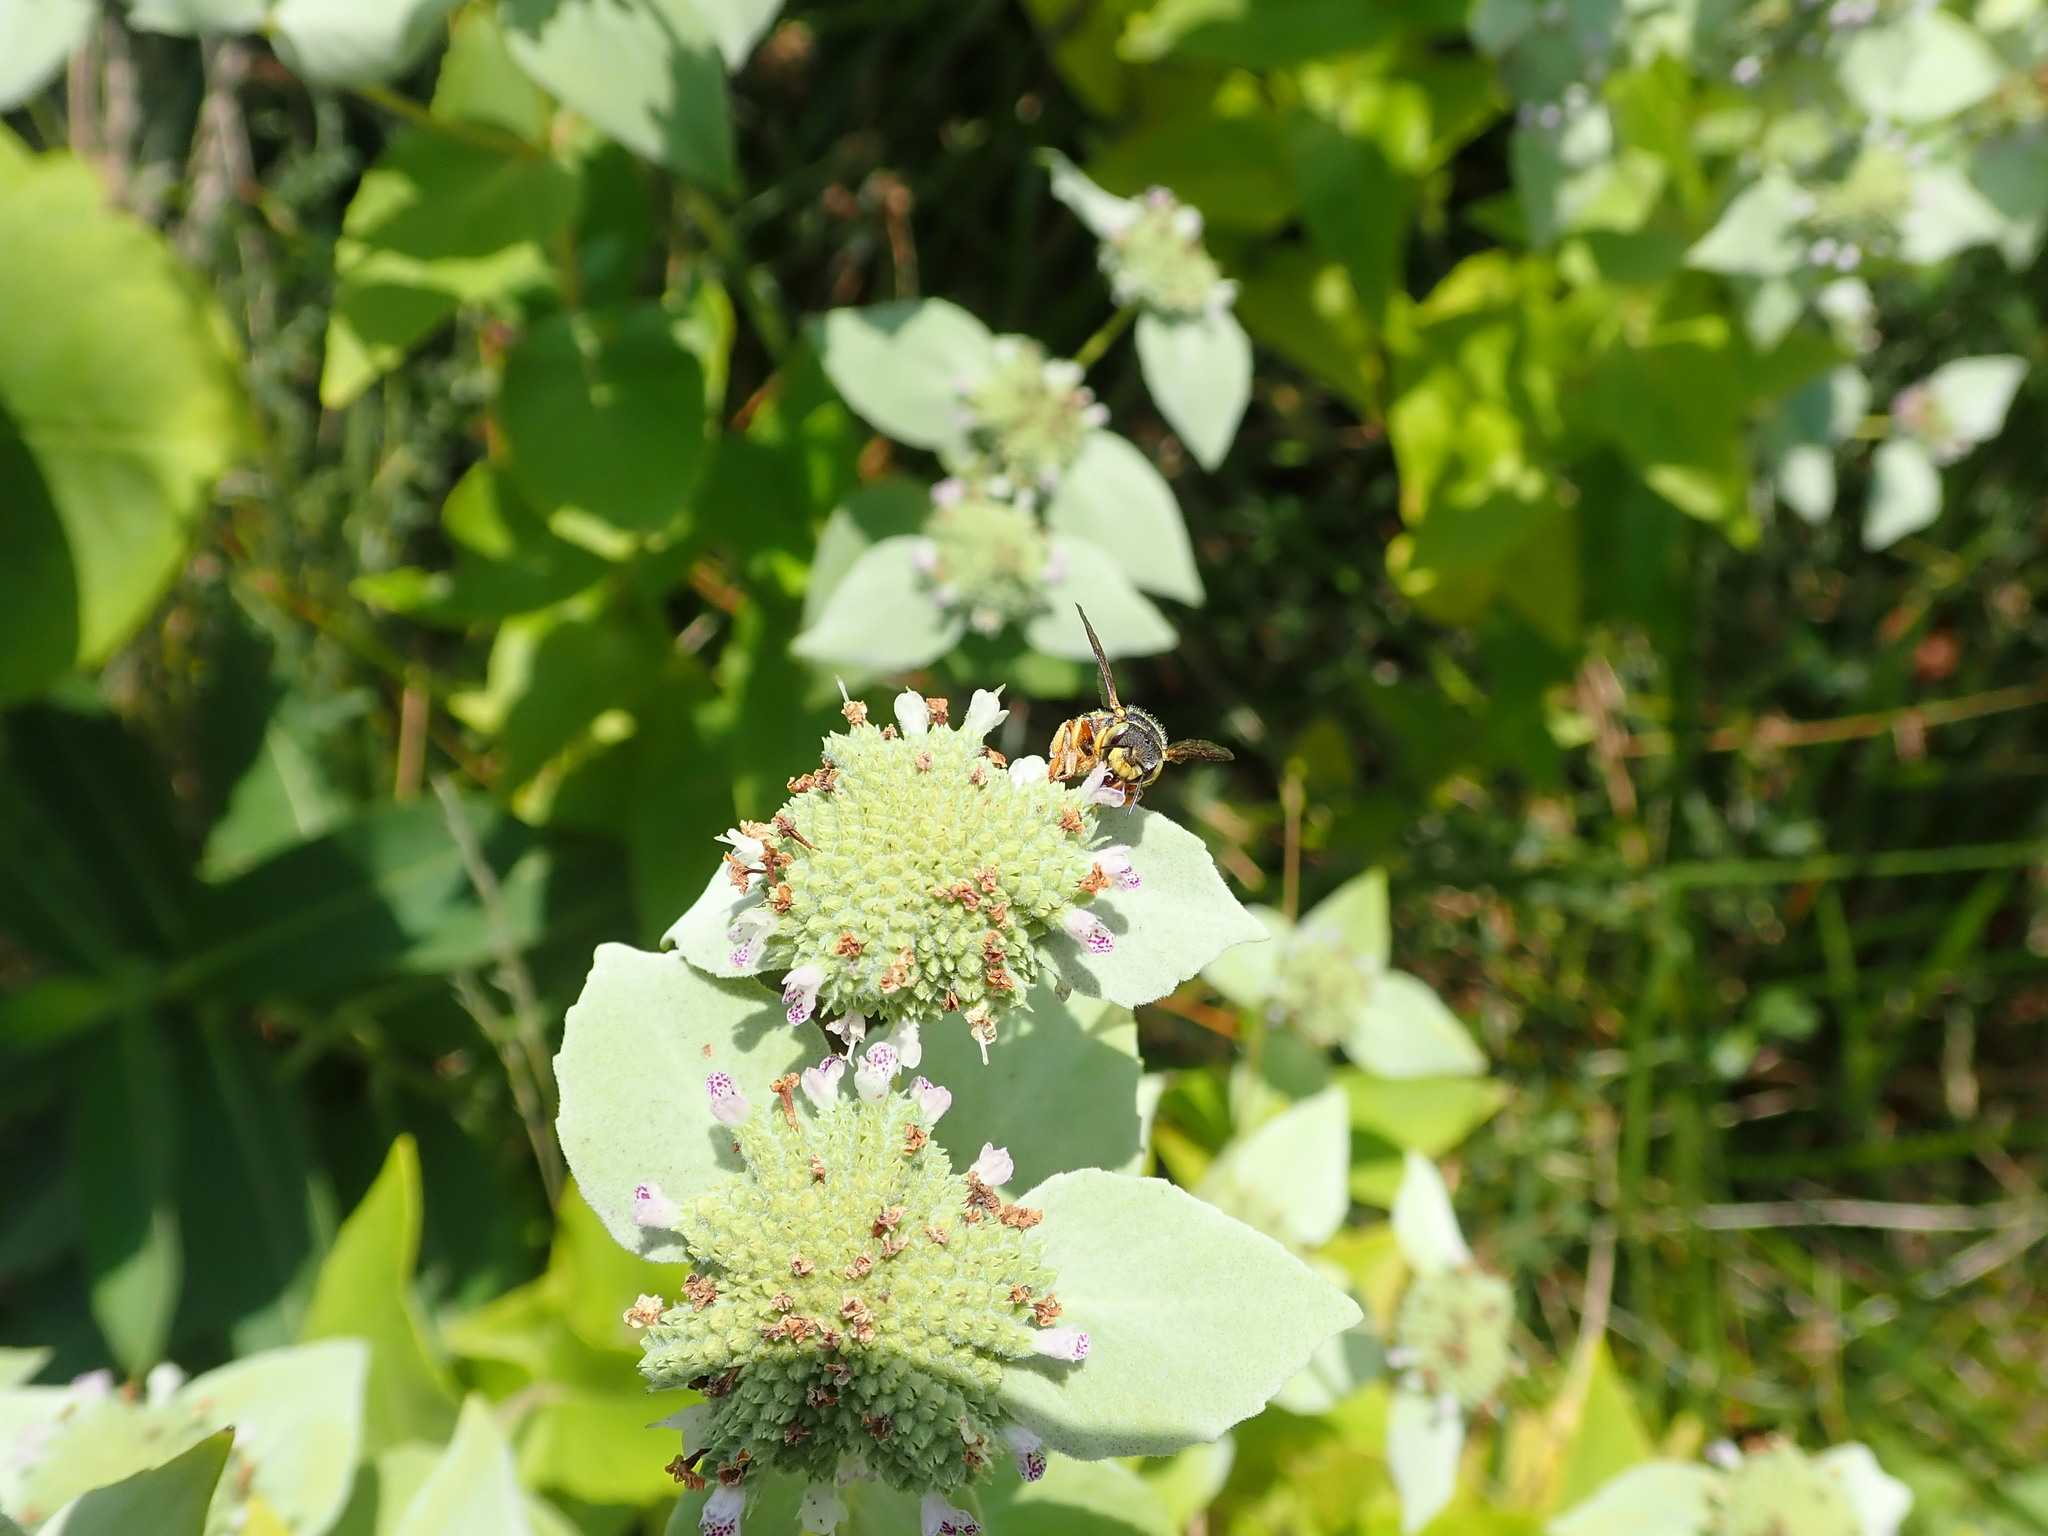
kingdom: Animalia
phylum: Arthropoda
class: Insecta
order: Hymenoptera
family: Megachilidae
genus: Anthidium
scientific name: Anthidium oblongatum
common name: Oblong wool carder bee
